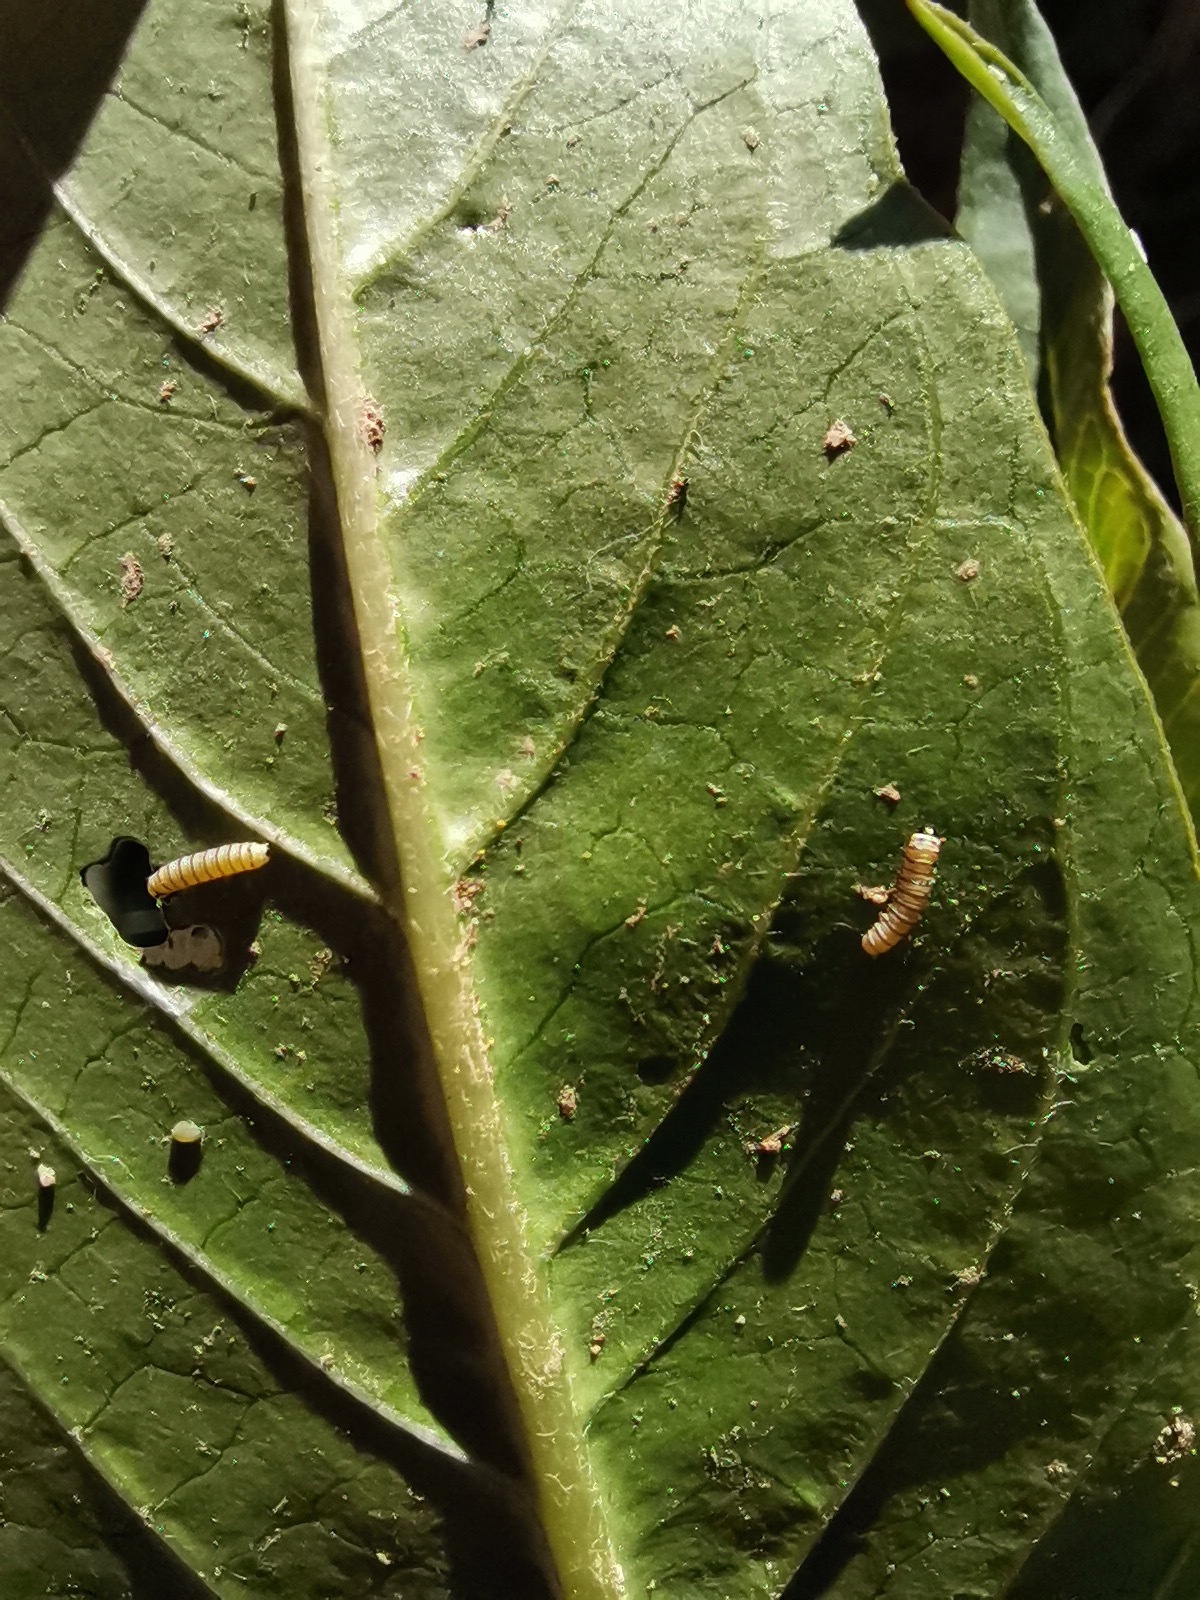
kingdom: Animalia
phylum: Arthropoda
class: Insecta
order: Lepidoptera
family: Nymphalidae
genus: Danaus
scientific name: Danaus plexippus
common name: Monarch
